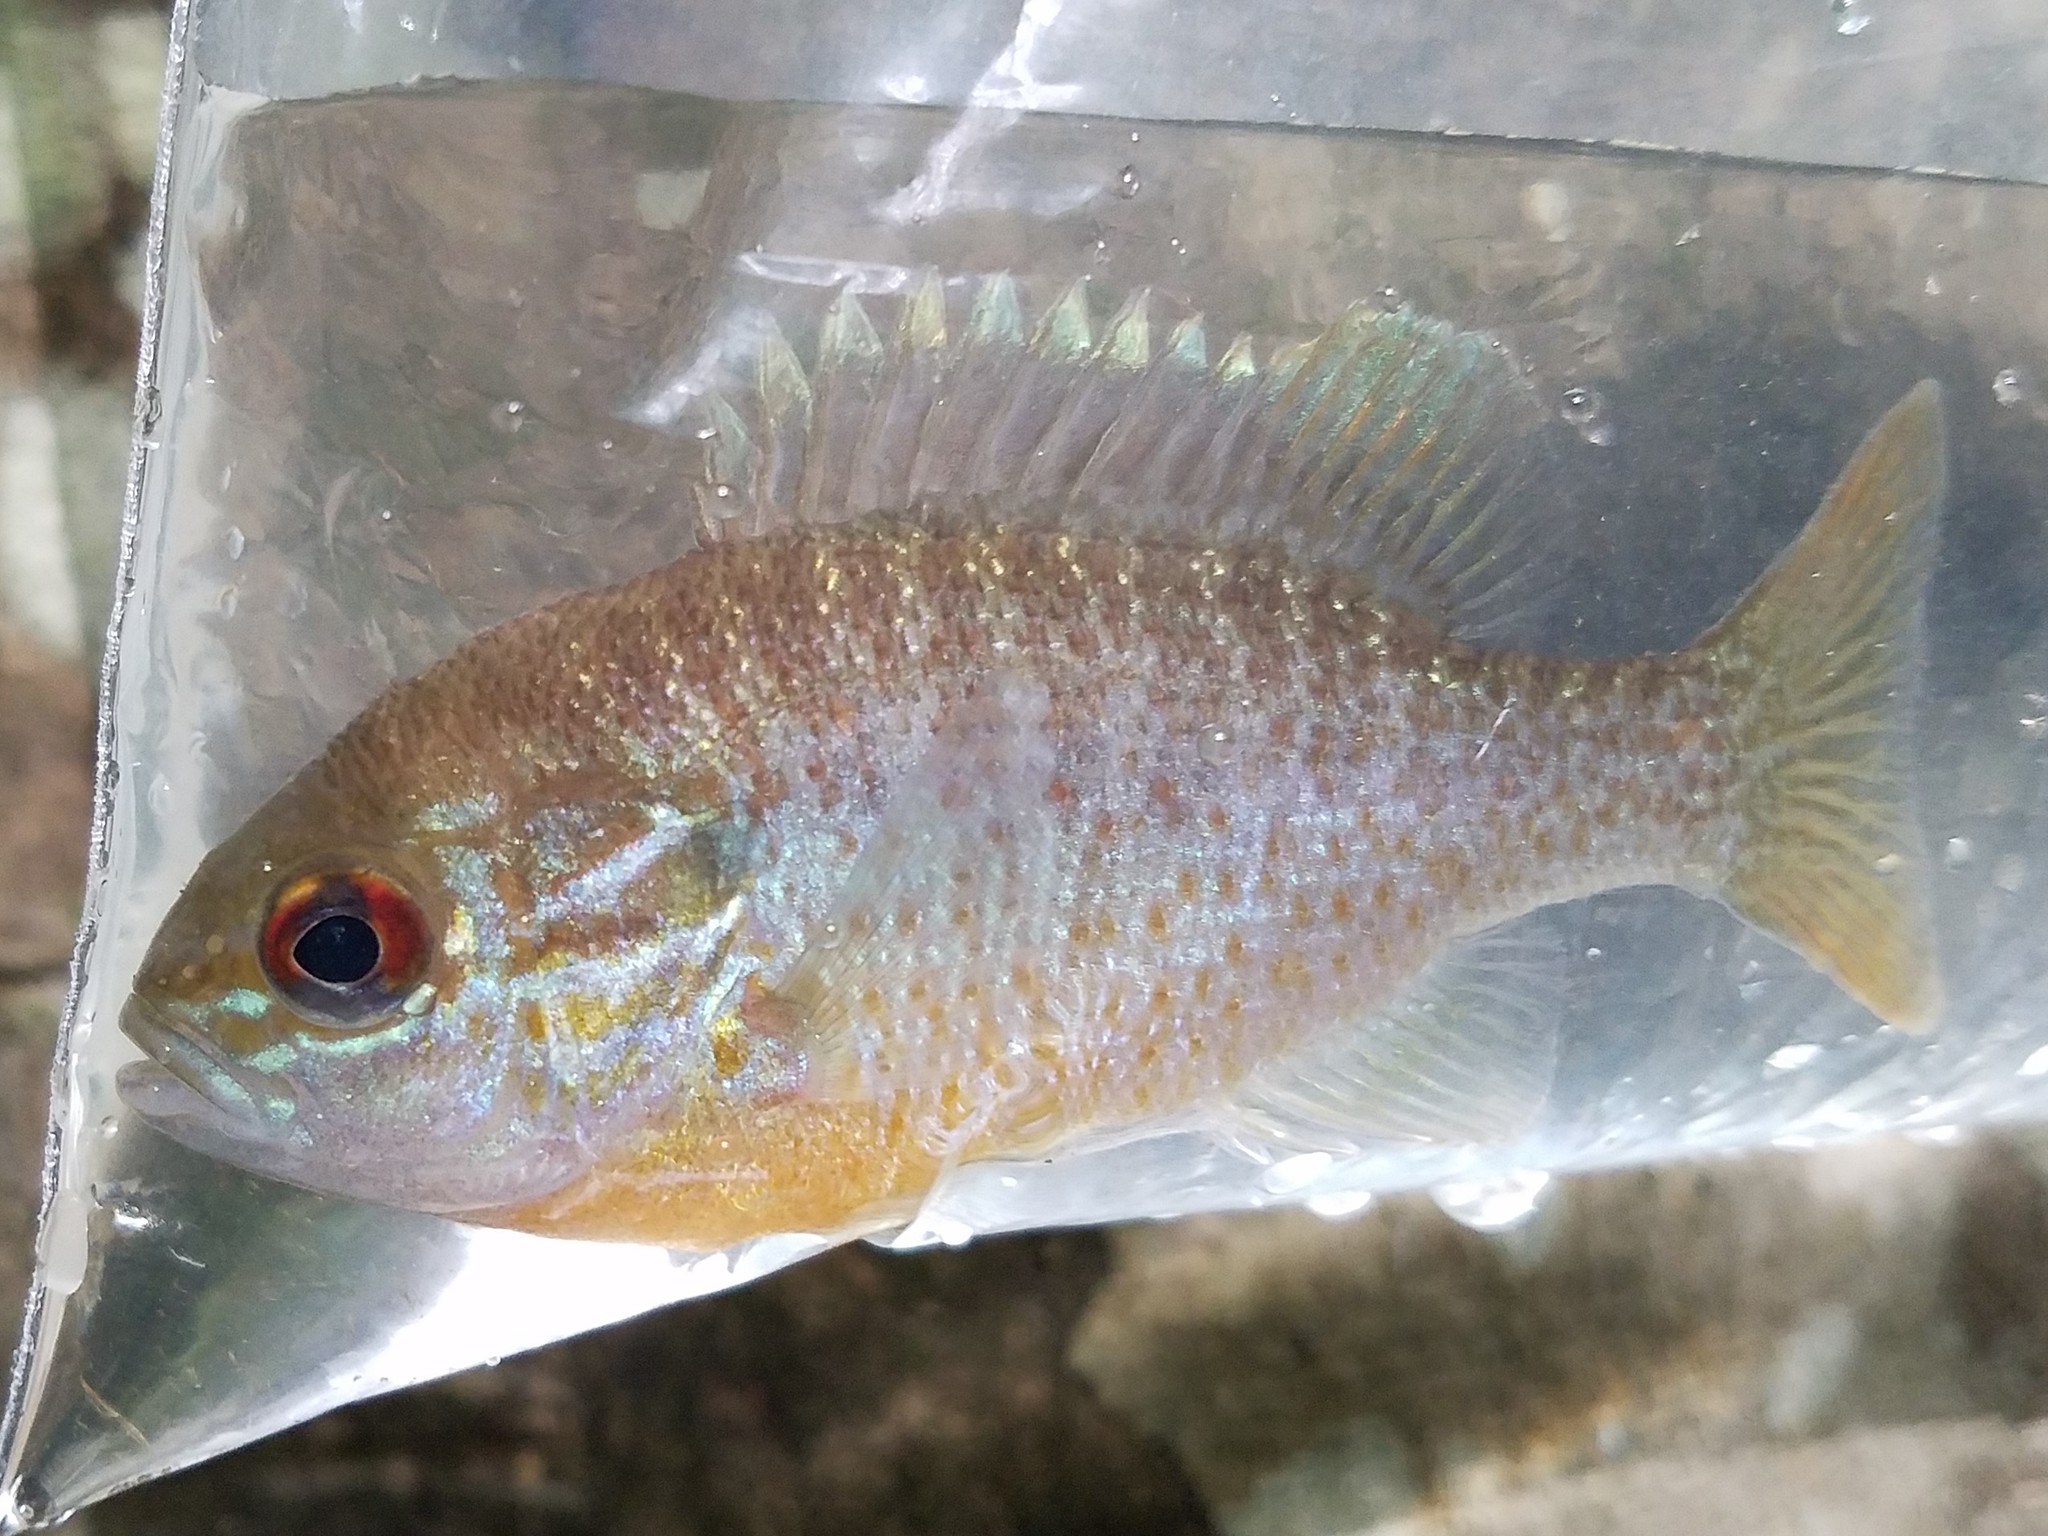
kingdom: Animalia
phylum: Chordata
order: Perciformes
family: Centrarchidae
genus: Lepomis
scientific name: Lepomis auritus
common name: Redbreast sunfish
